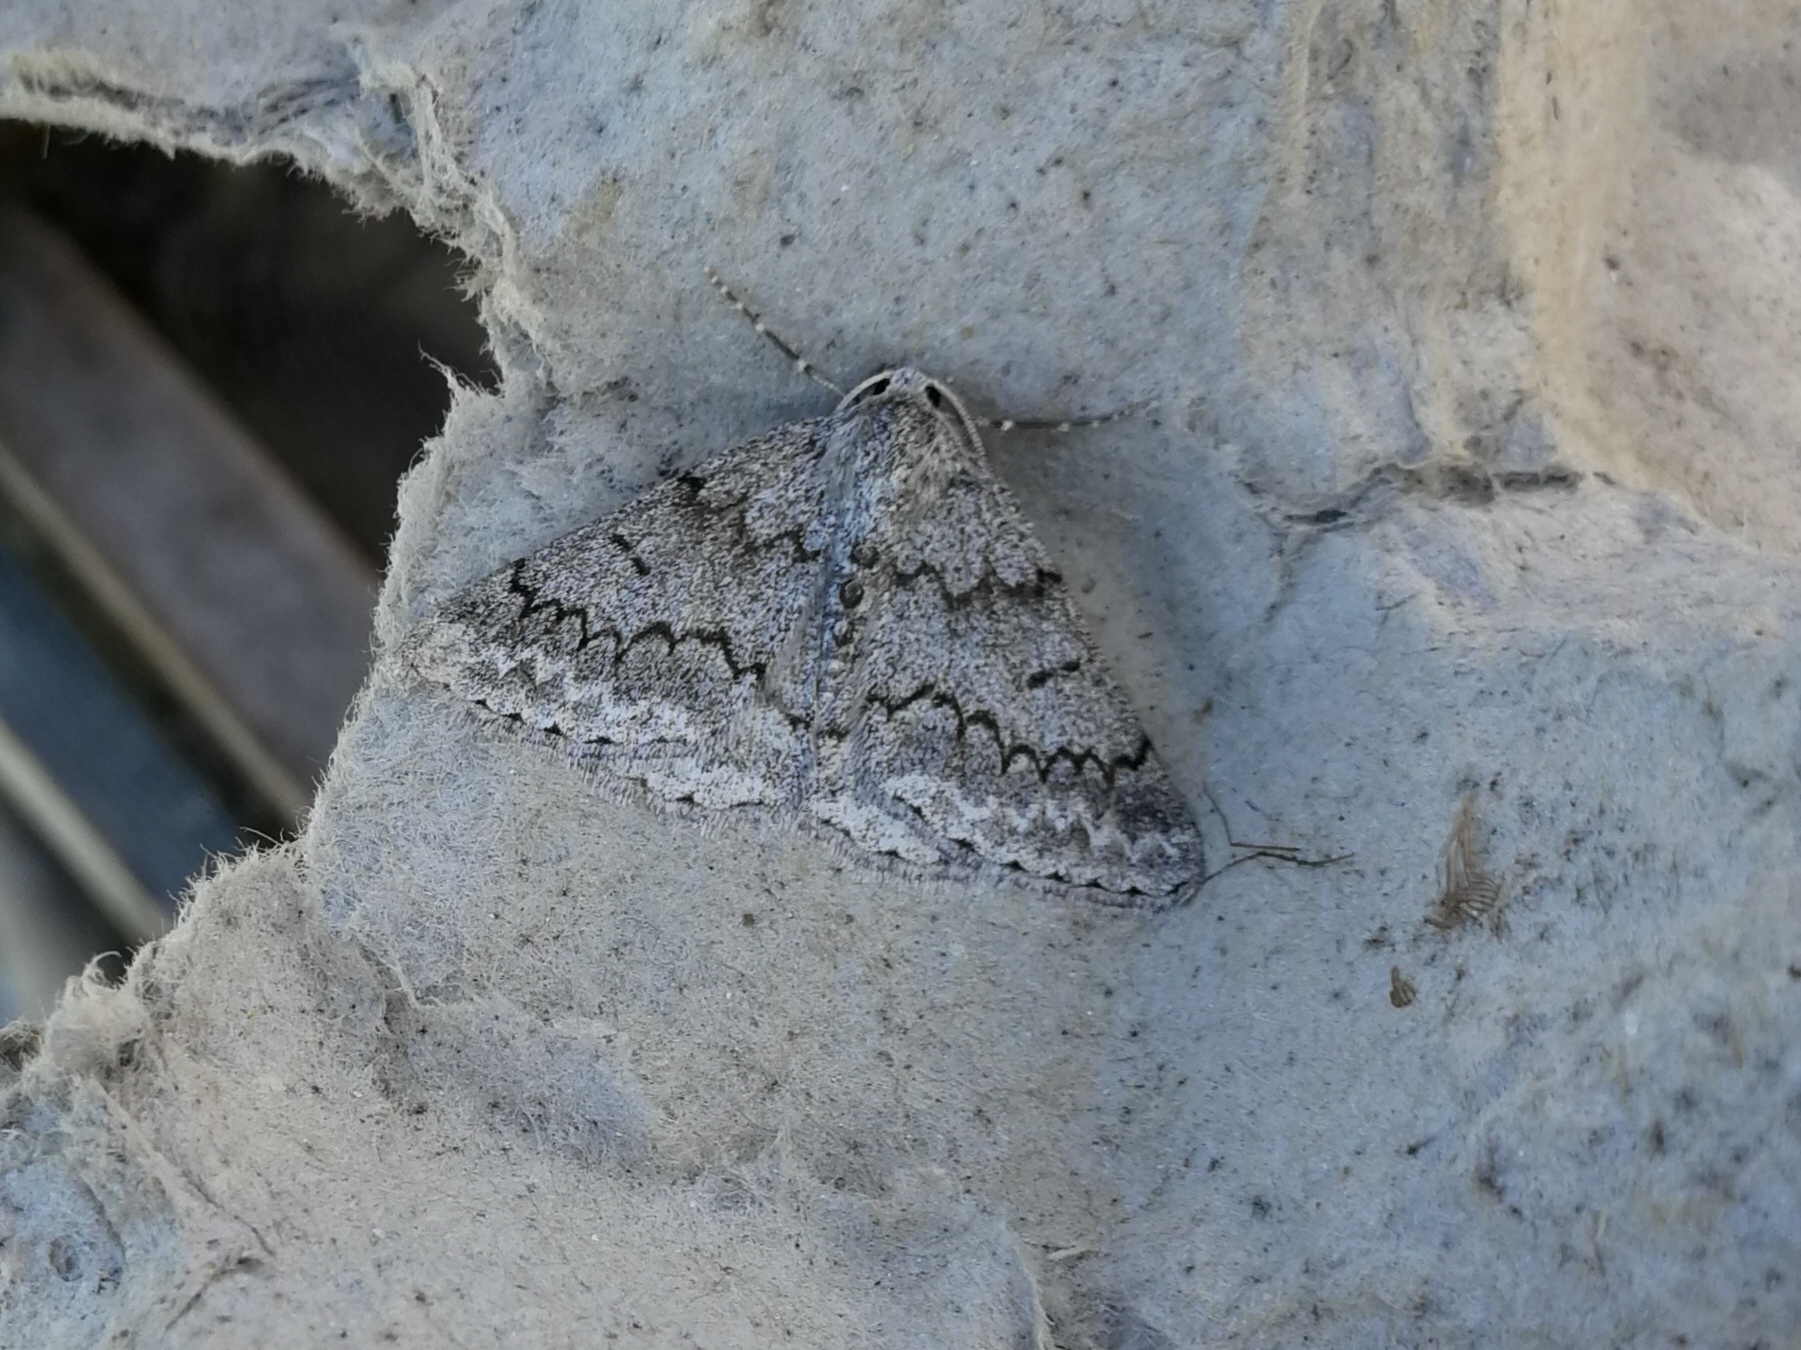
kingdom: Animalia
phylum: Arthropoda
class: Insecta
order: Lepidoptera
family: Geometridae
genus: Pseudoterpna
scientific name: Pseudoterpna coronillaria
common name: Jersey emerald
